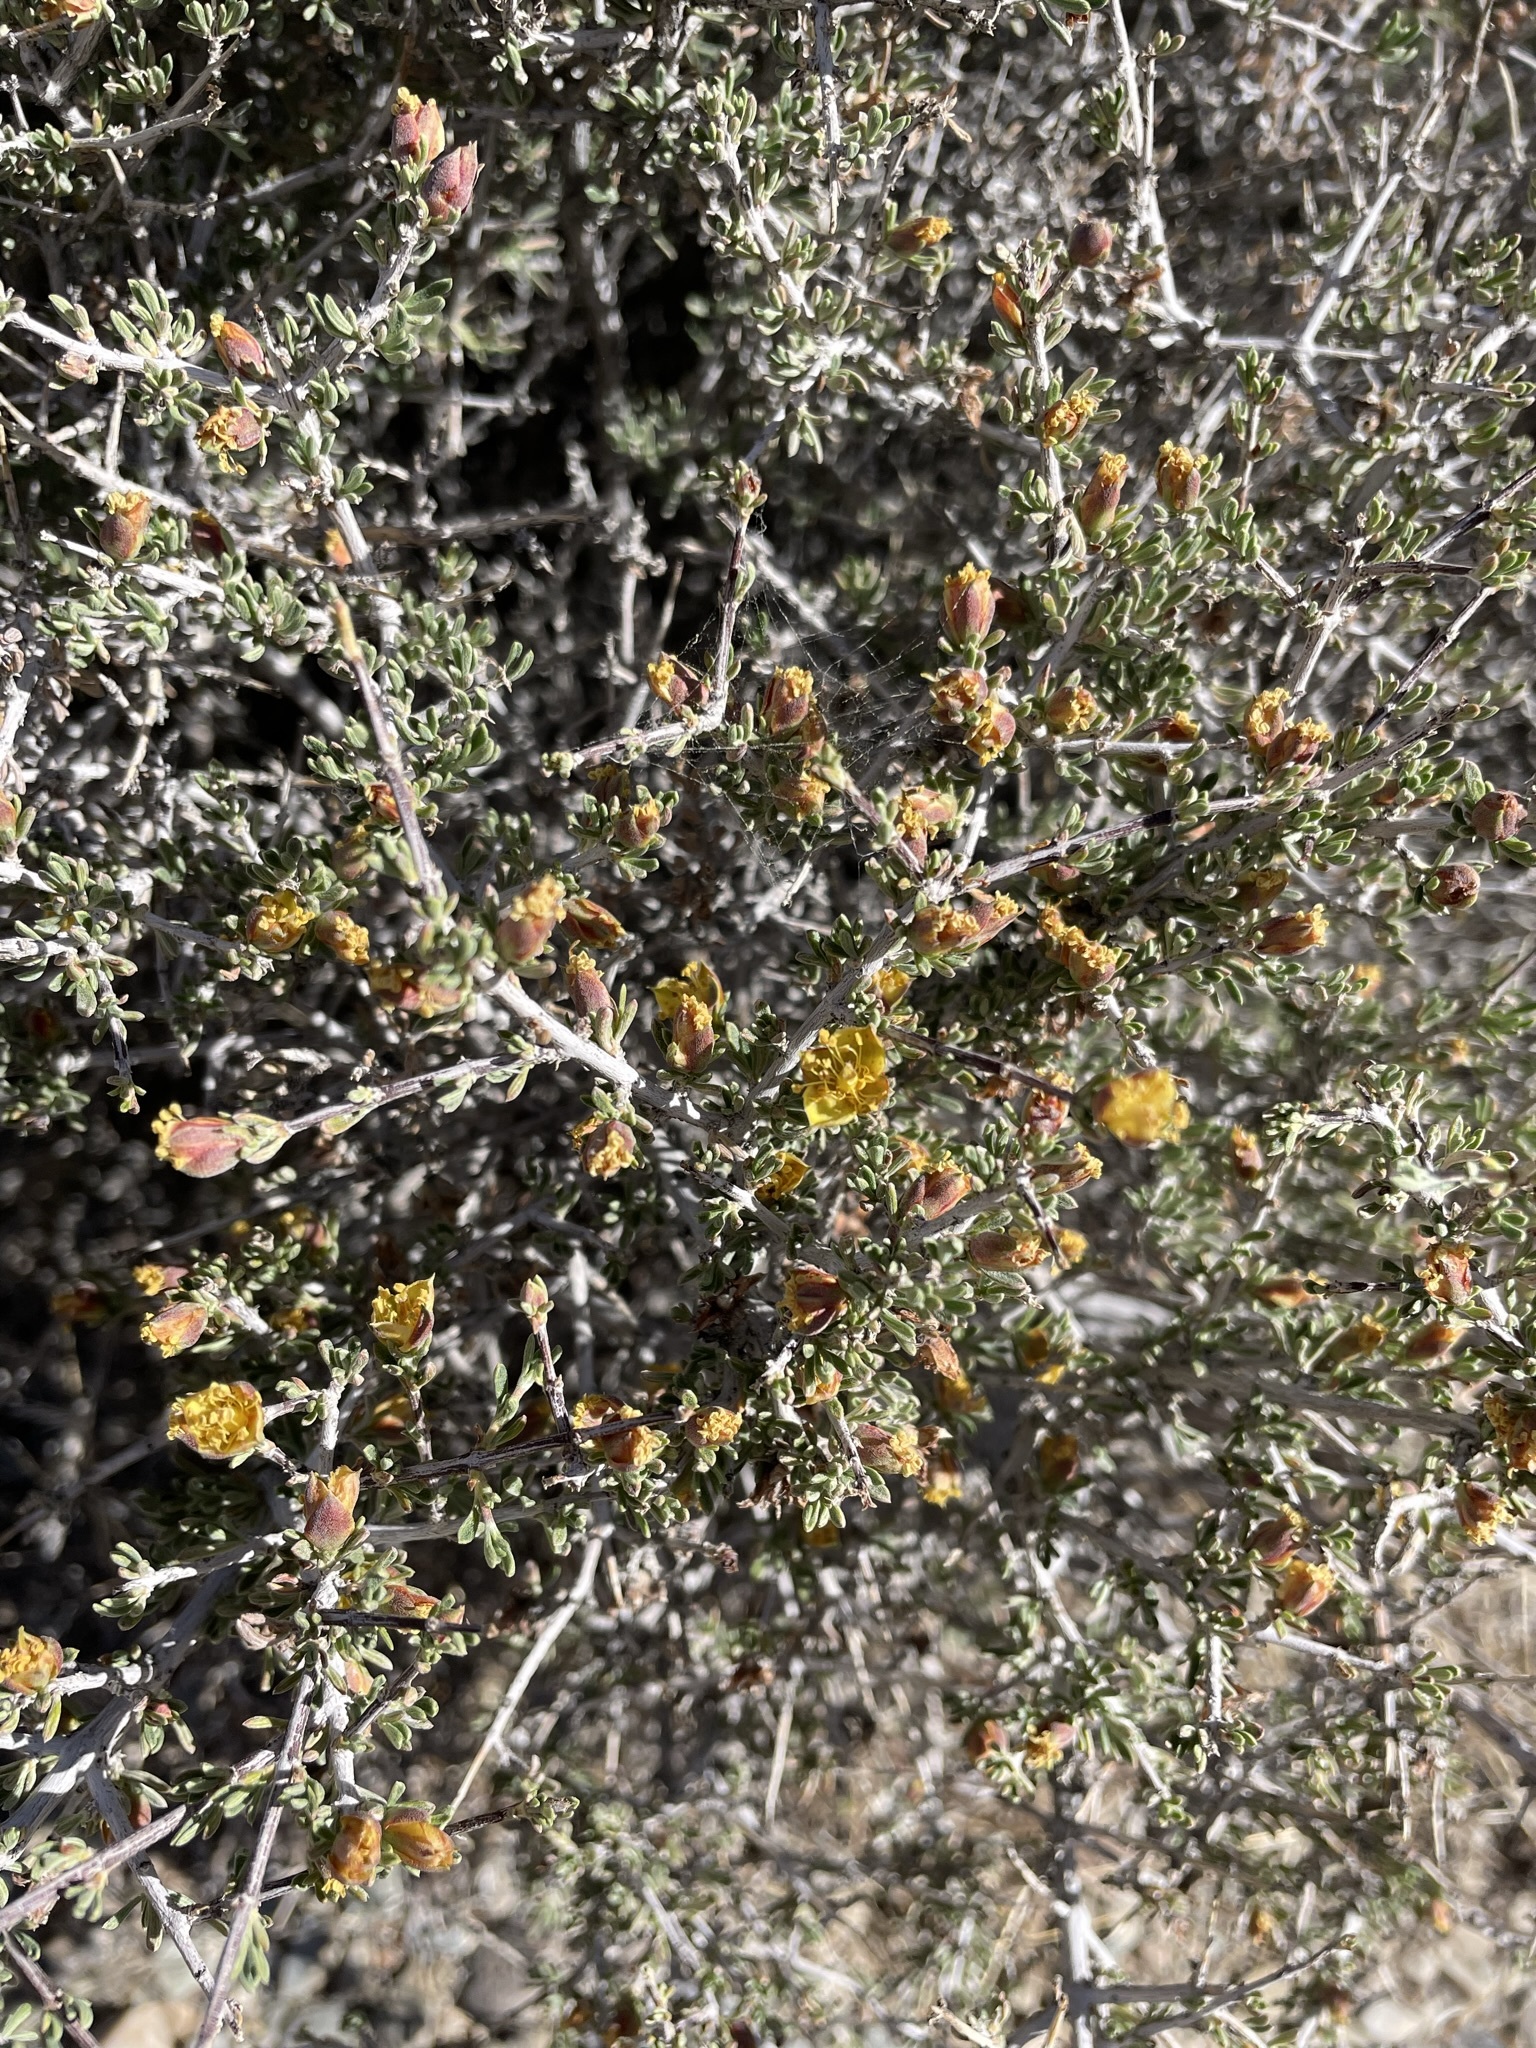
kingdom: Plantae
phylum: Tracheophyta
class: Magnoliopsida
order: Rosales
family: Rosaceae
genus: Coleogyne
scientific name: Coleogyne ramosissima
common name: Blackbrush
